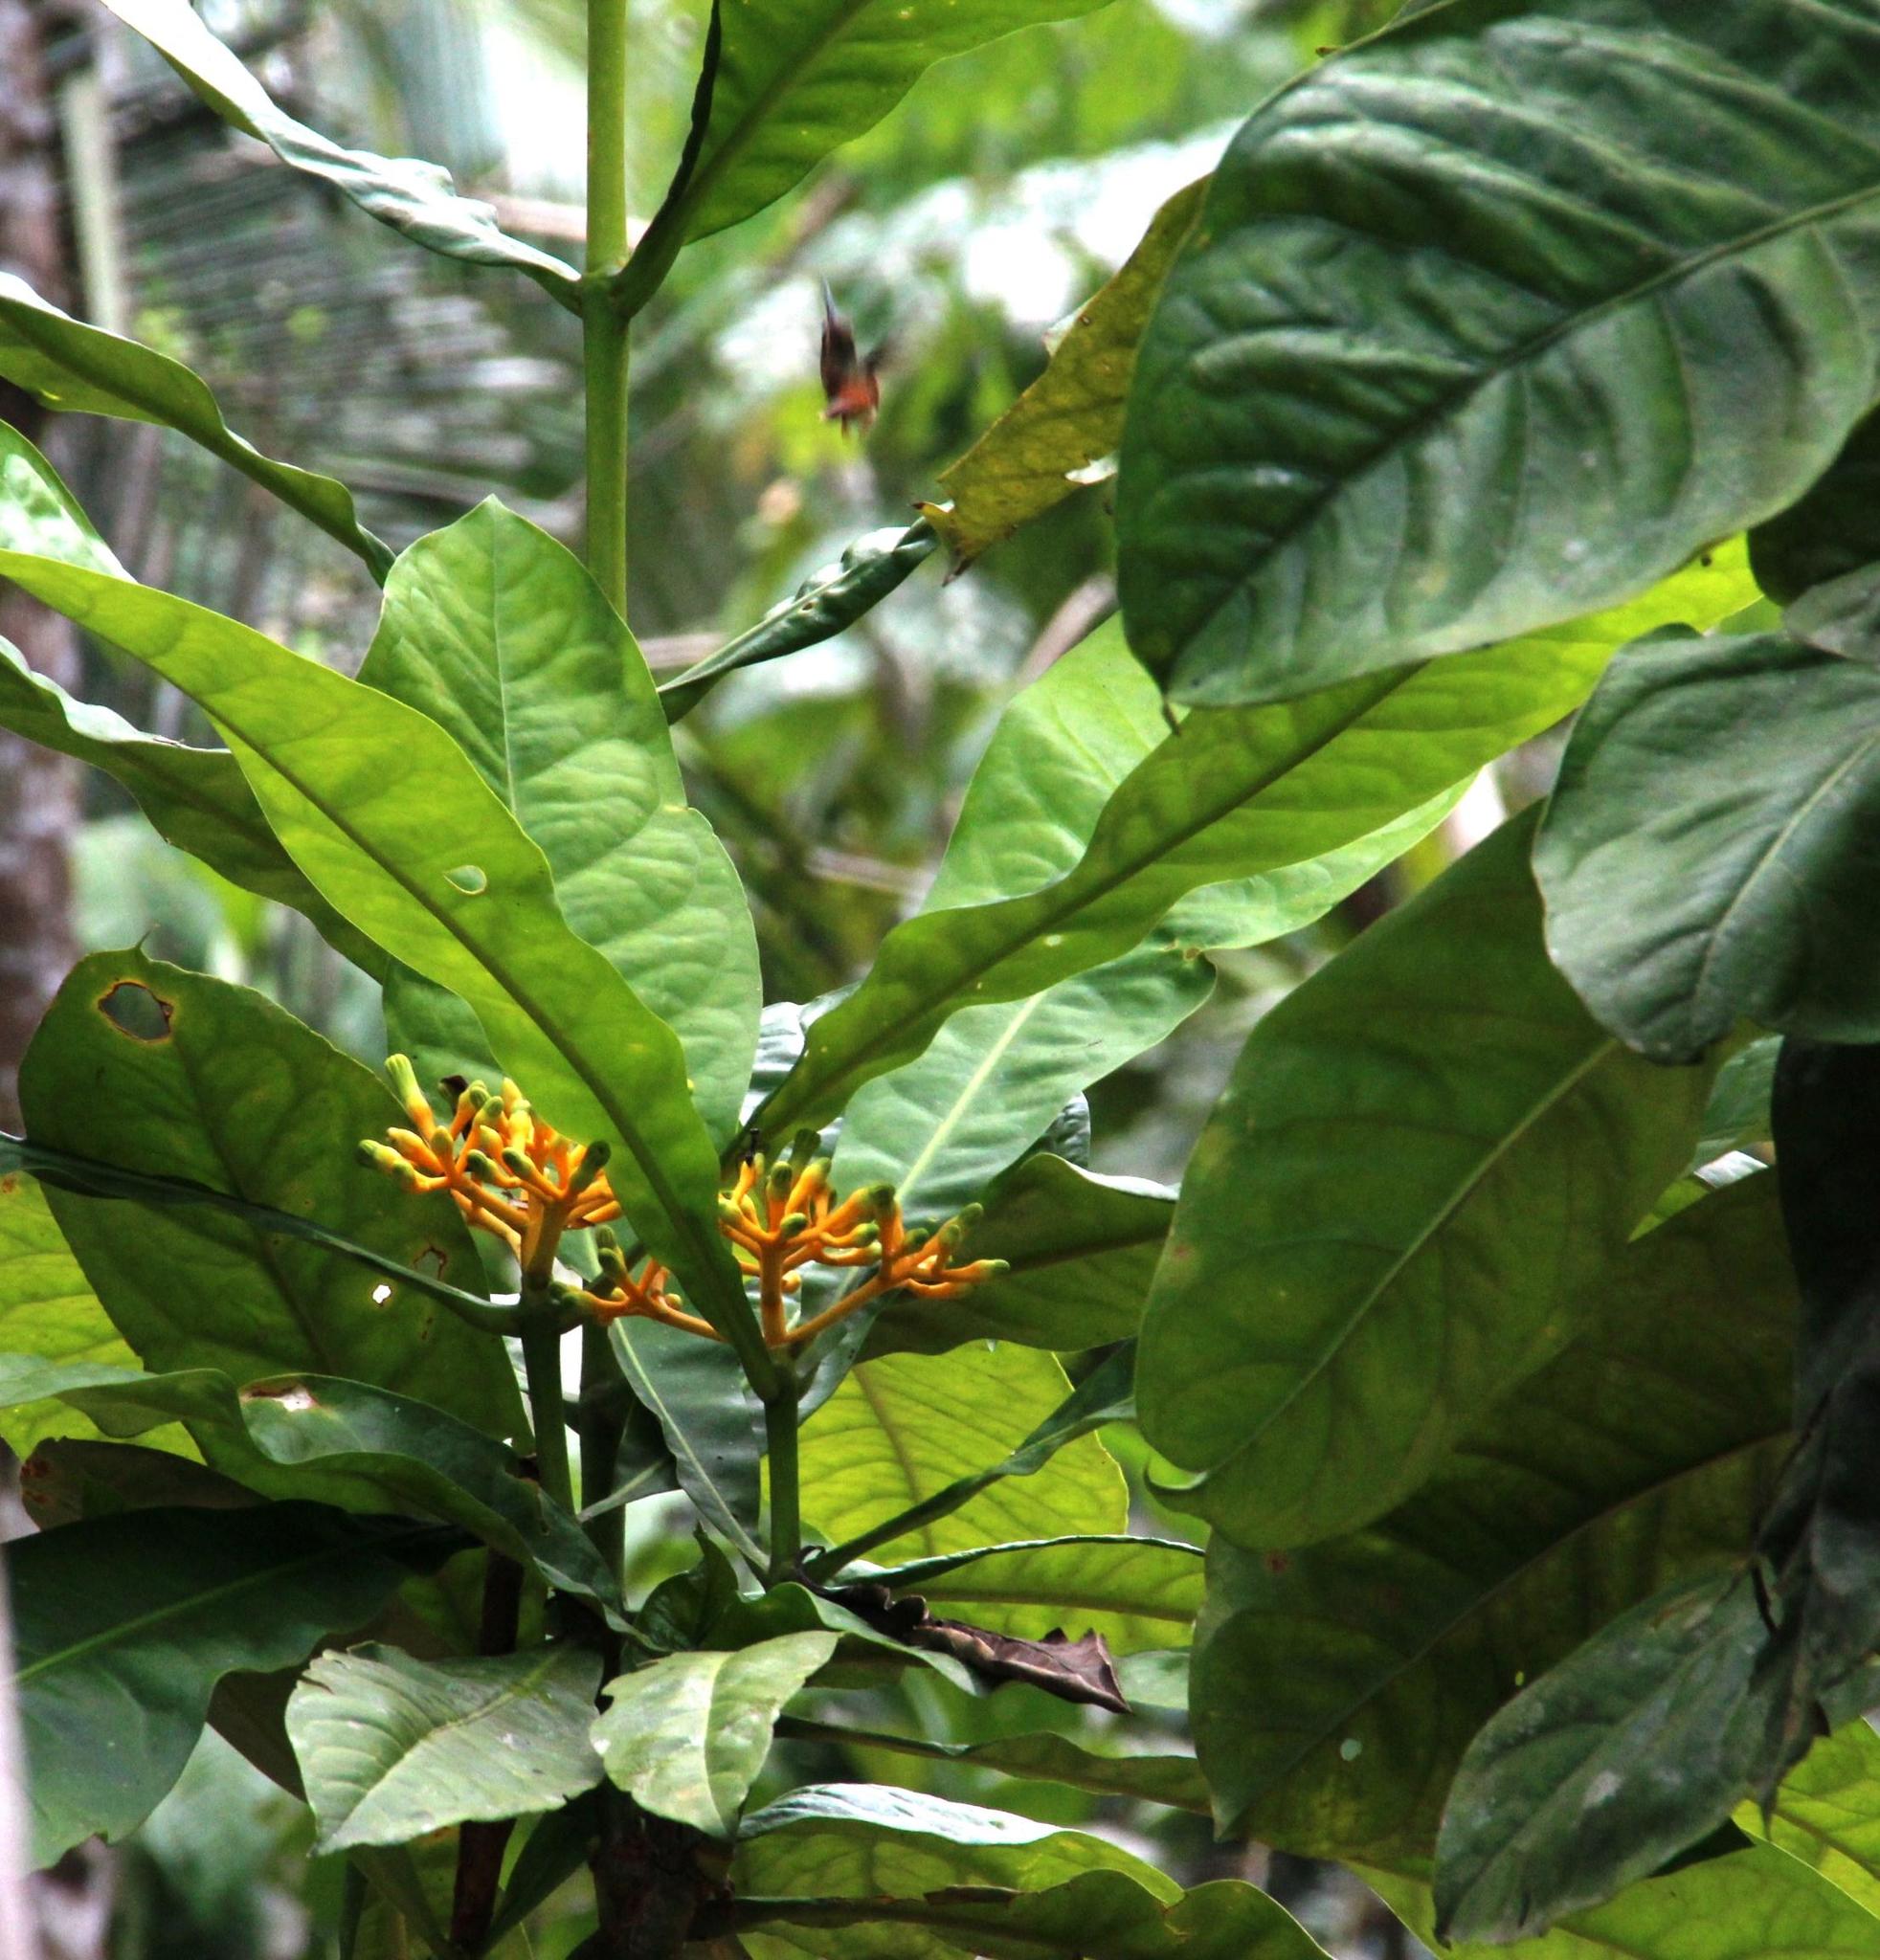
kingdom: Plantae
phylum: Tracheophyta
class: Magnoliopsida
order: Gentianales
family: Gentianaceae
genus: Potalia
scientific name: Potalia resinifera
